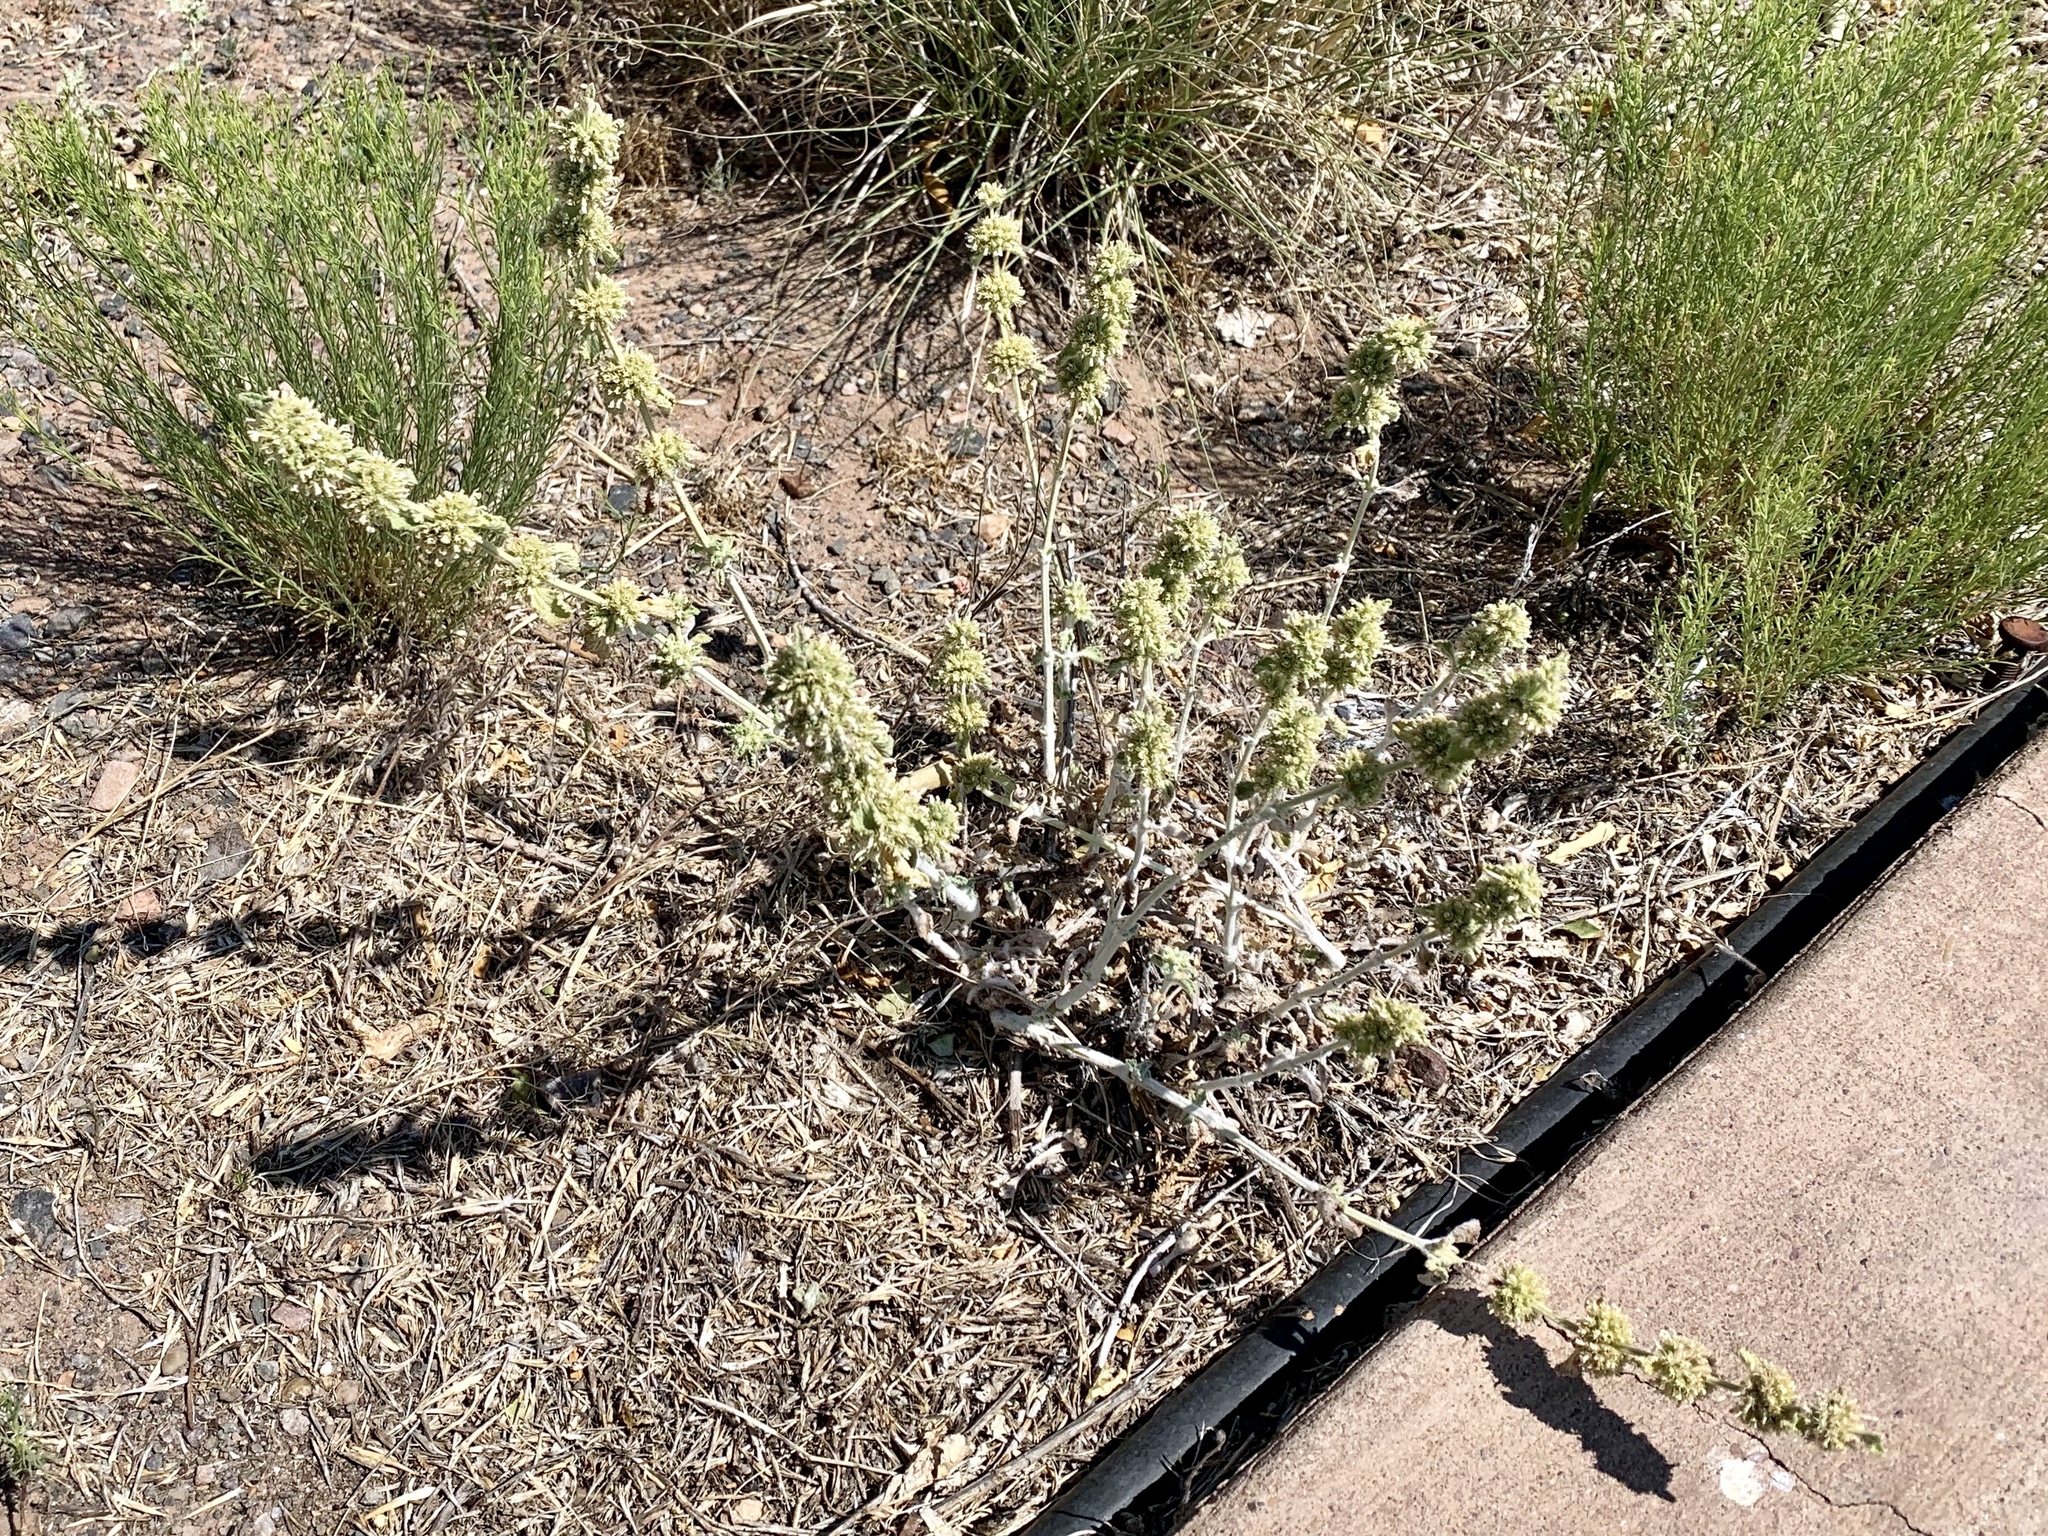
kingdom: Plantae
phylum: Tracheophyta
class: Magnoliopsida
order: Lamiales
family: Lamiaceae
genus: Marrubium
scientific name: Marrubium vulgare
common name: Horehound
